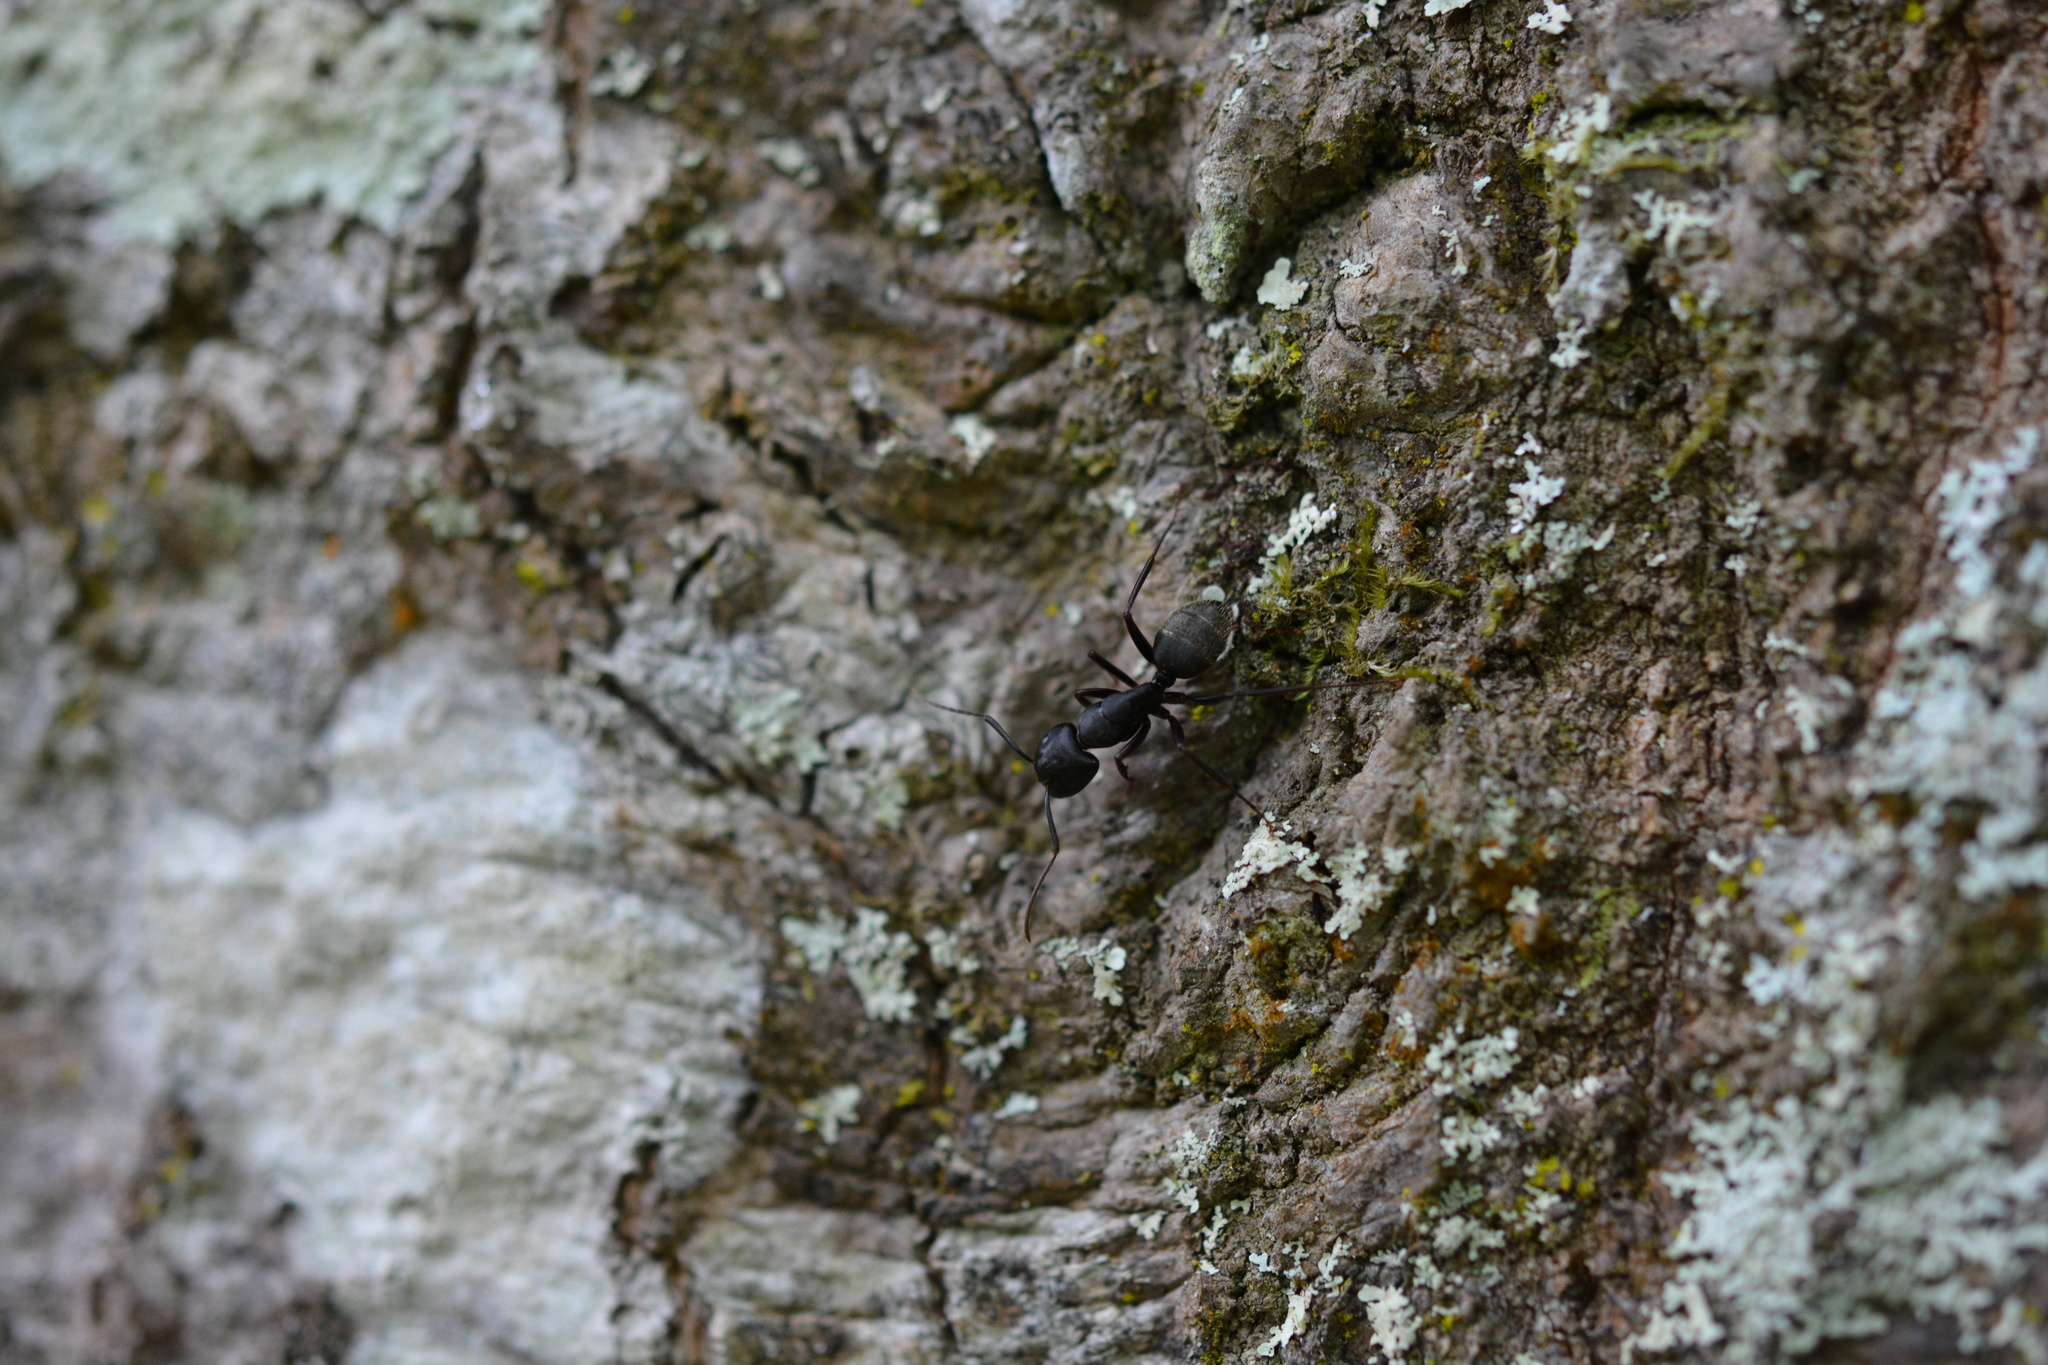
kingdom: Animalia
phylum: Arthropoda
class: Insecta
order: Hymenoptera
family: Formicidae
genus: Camponotus
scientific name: Camponotus pennsylvanicus
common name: Black carpenter ant
